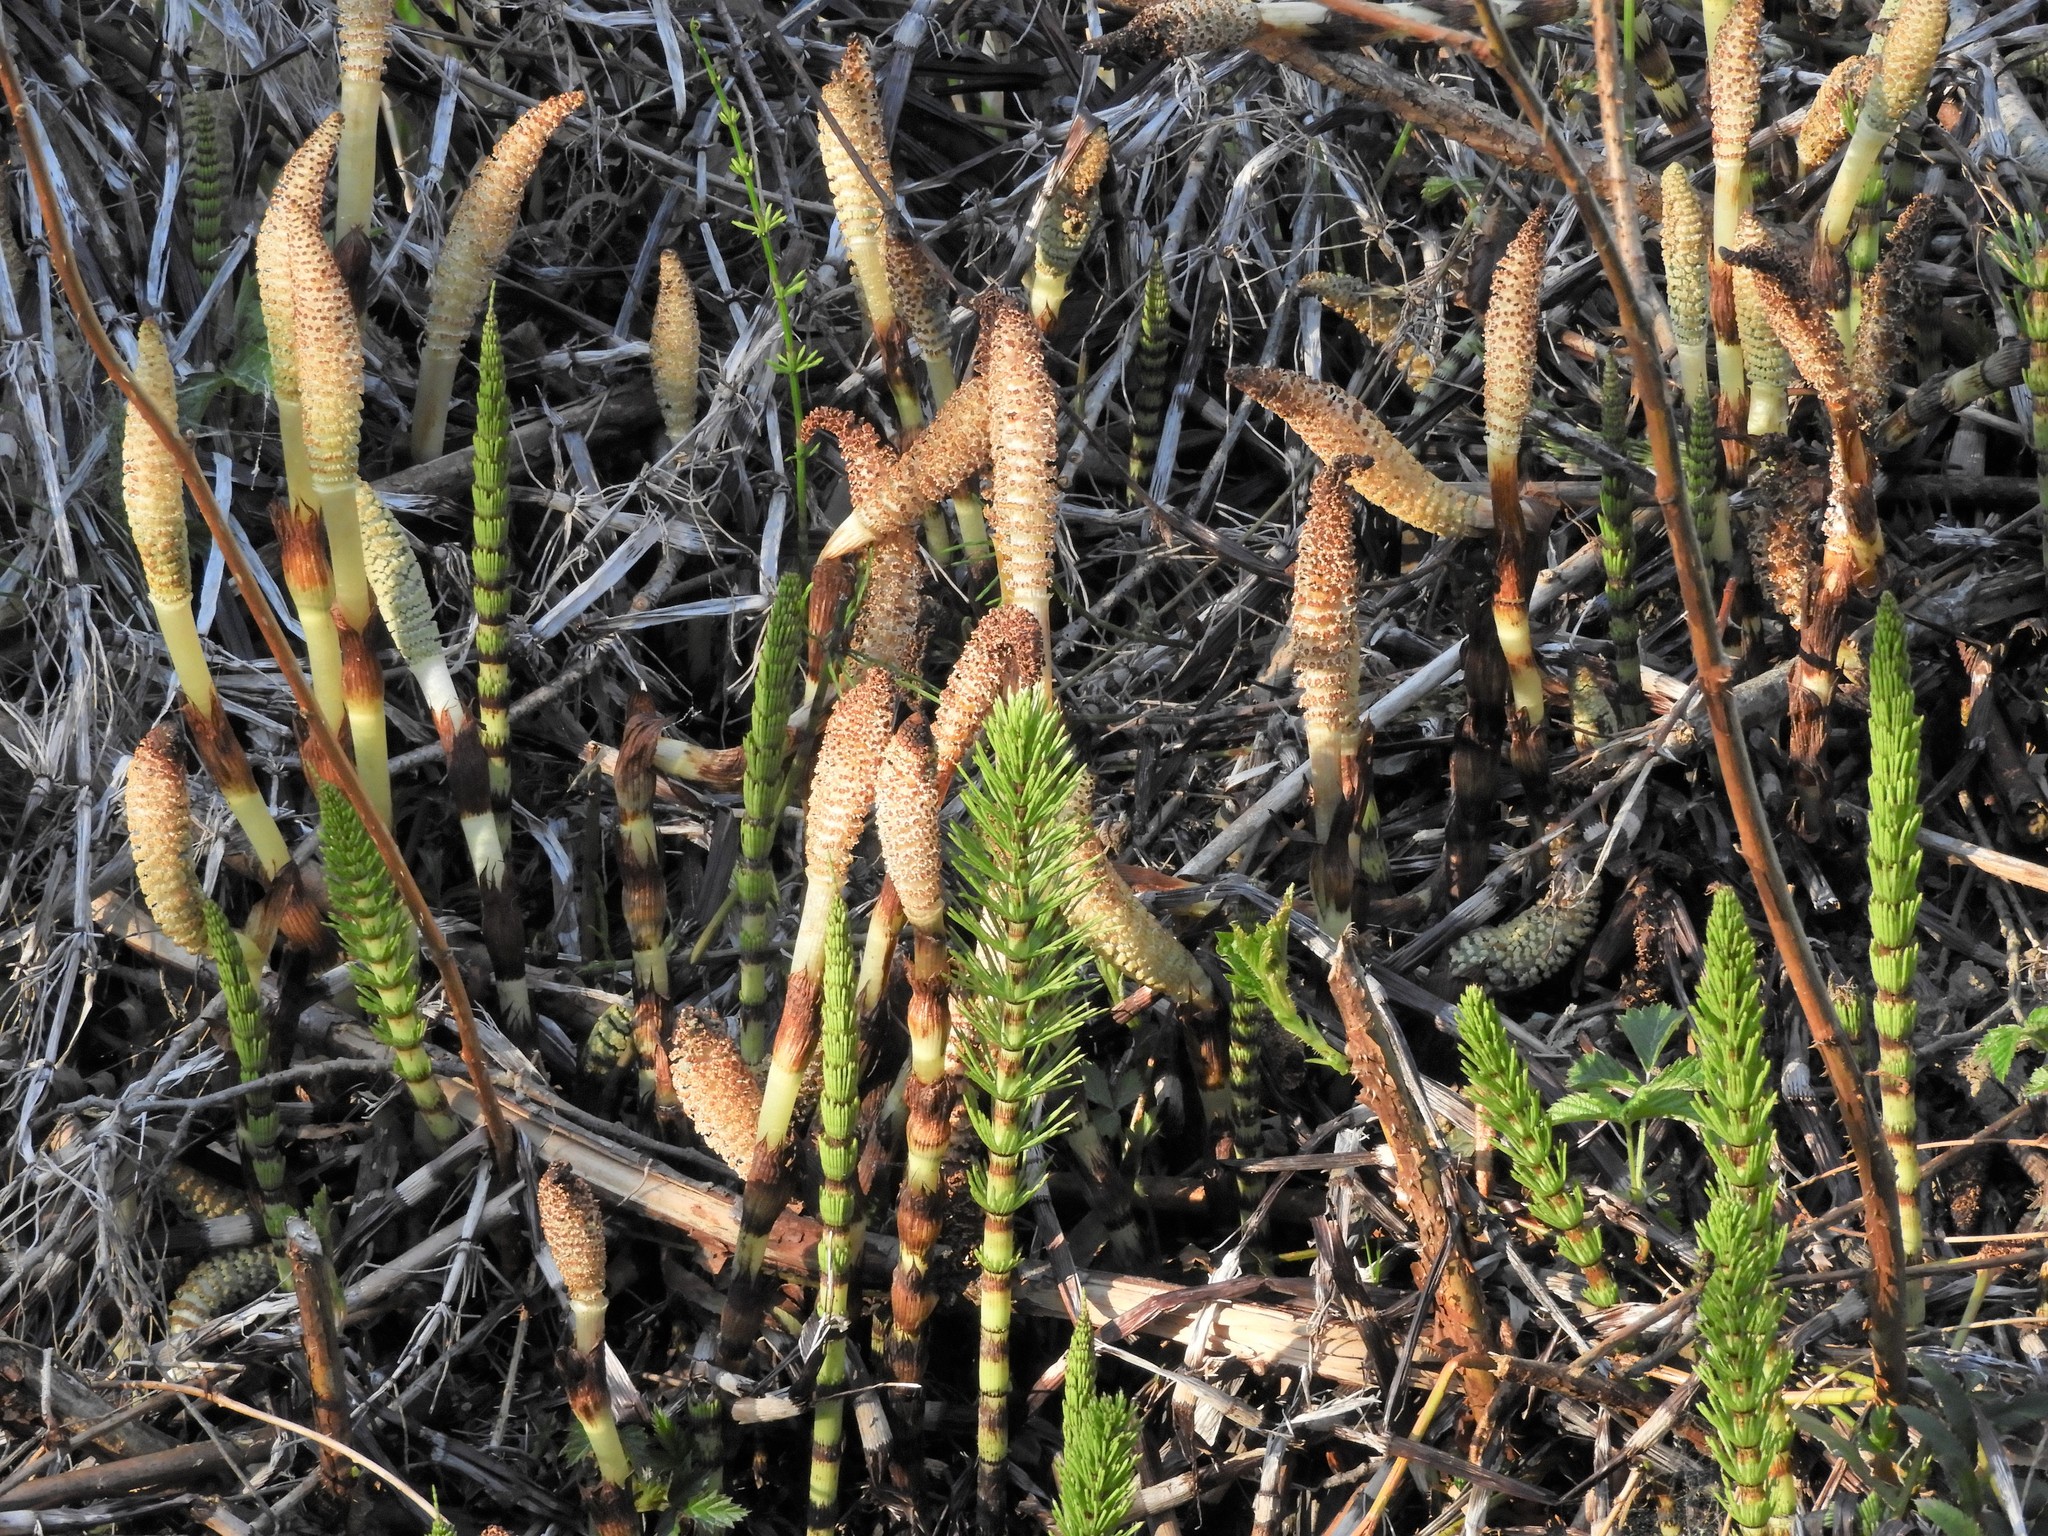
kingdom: Plantae
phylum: Tracheophyta
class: Polypodiopsida
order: Equisetales
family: Equisetaceae
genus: Equisetum
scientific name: Equisetum telmateia
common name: Great horsetail
